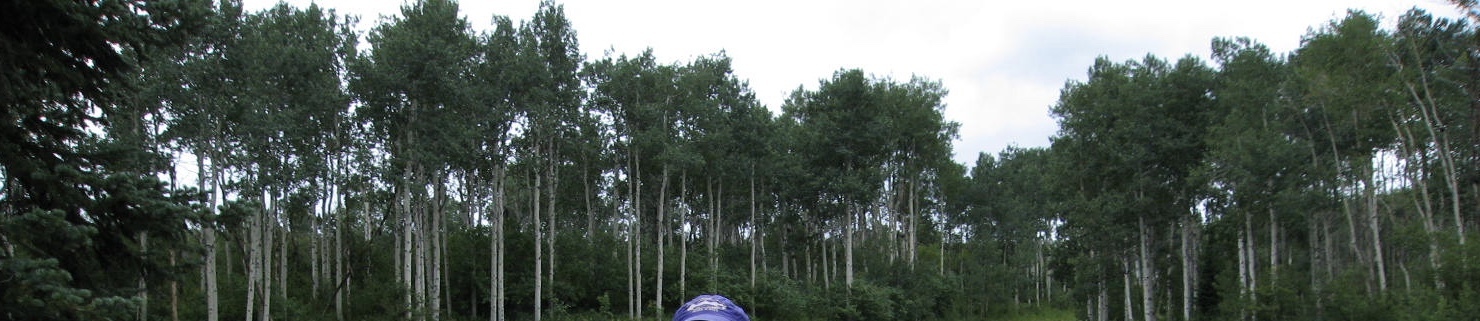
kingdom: Plantae
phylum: Tracheophyta
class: Magnoliopsida
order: Malpighiales
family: Salicaceae
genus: Populus
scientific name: Populus tremuloides
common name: Quaking aspen
